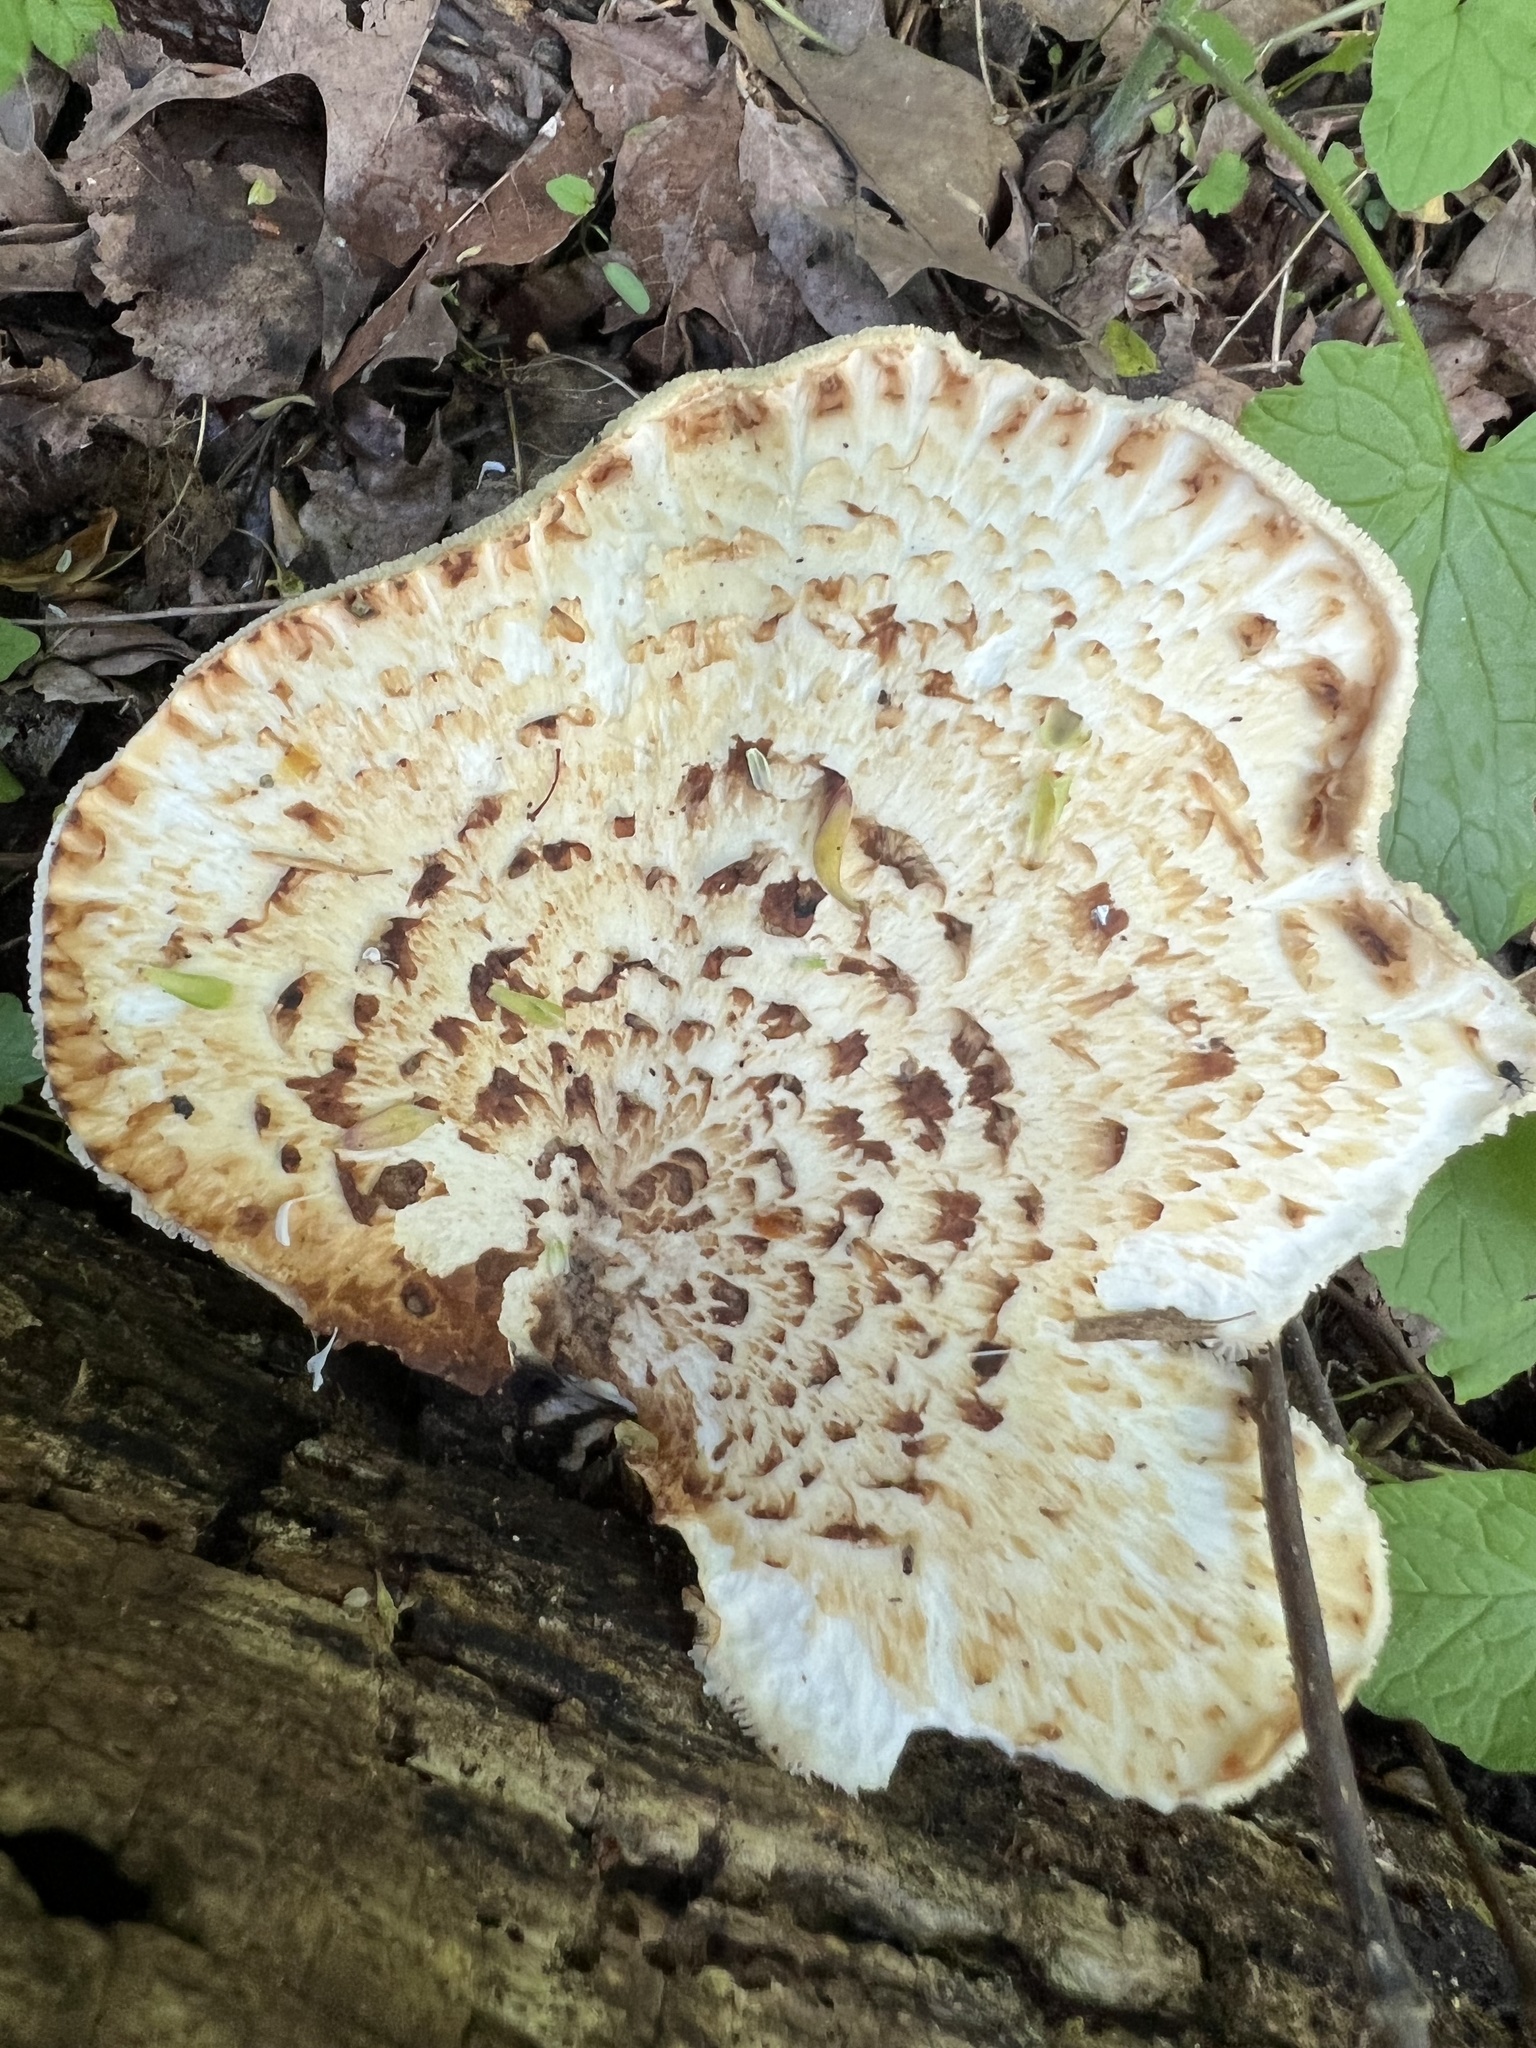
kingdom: Fungi
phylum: Basidiomycota
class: Agaricomycetes
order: Polyporales
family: Polyporaceae
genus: Cerioporus
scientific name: Cerioporus squamosus
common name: Dryad's saddle
